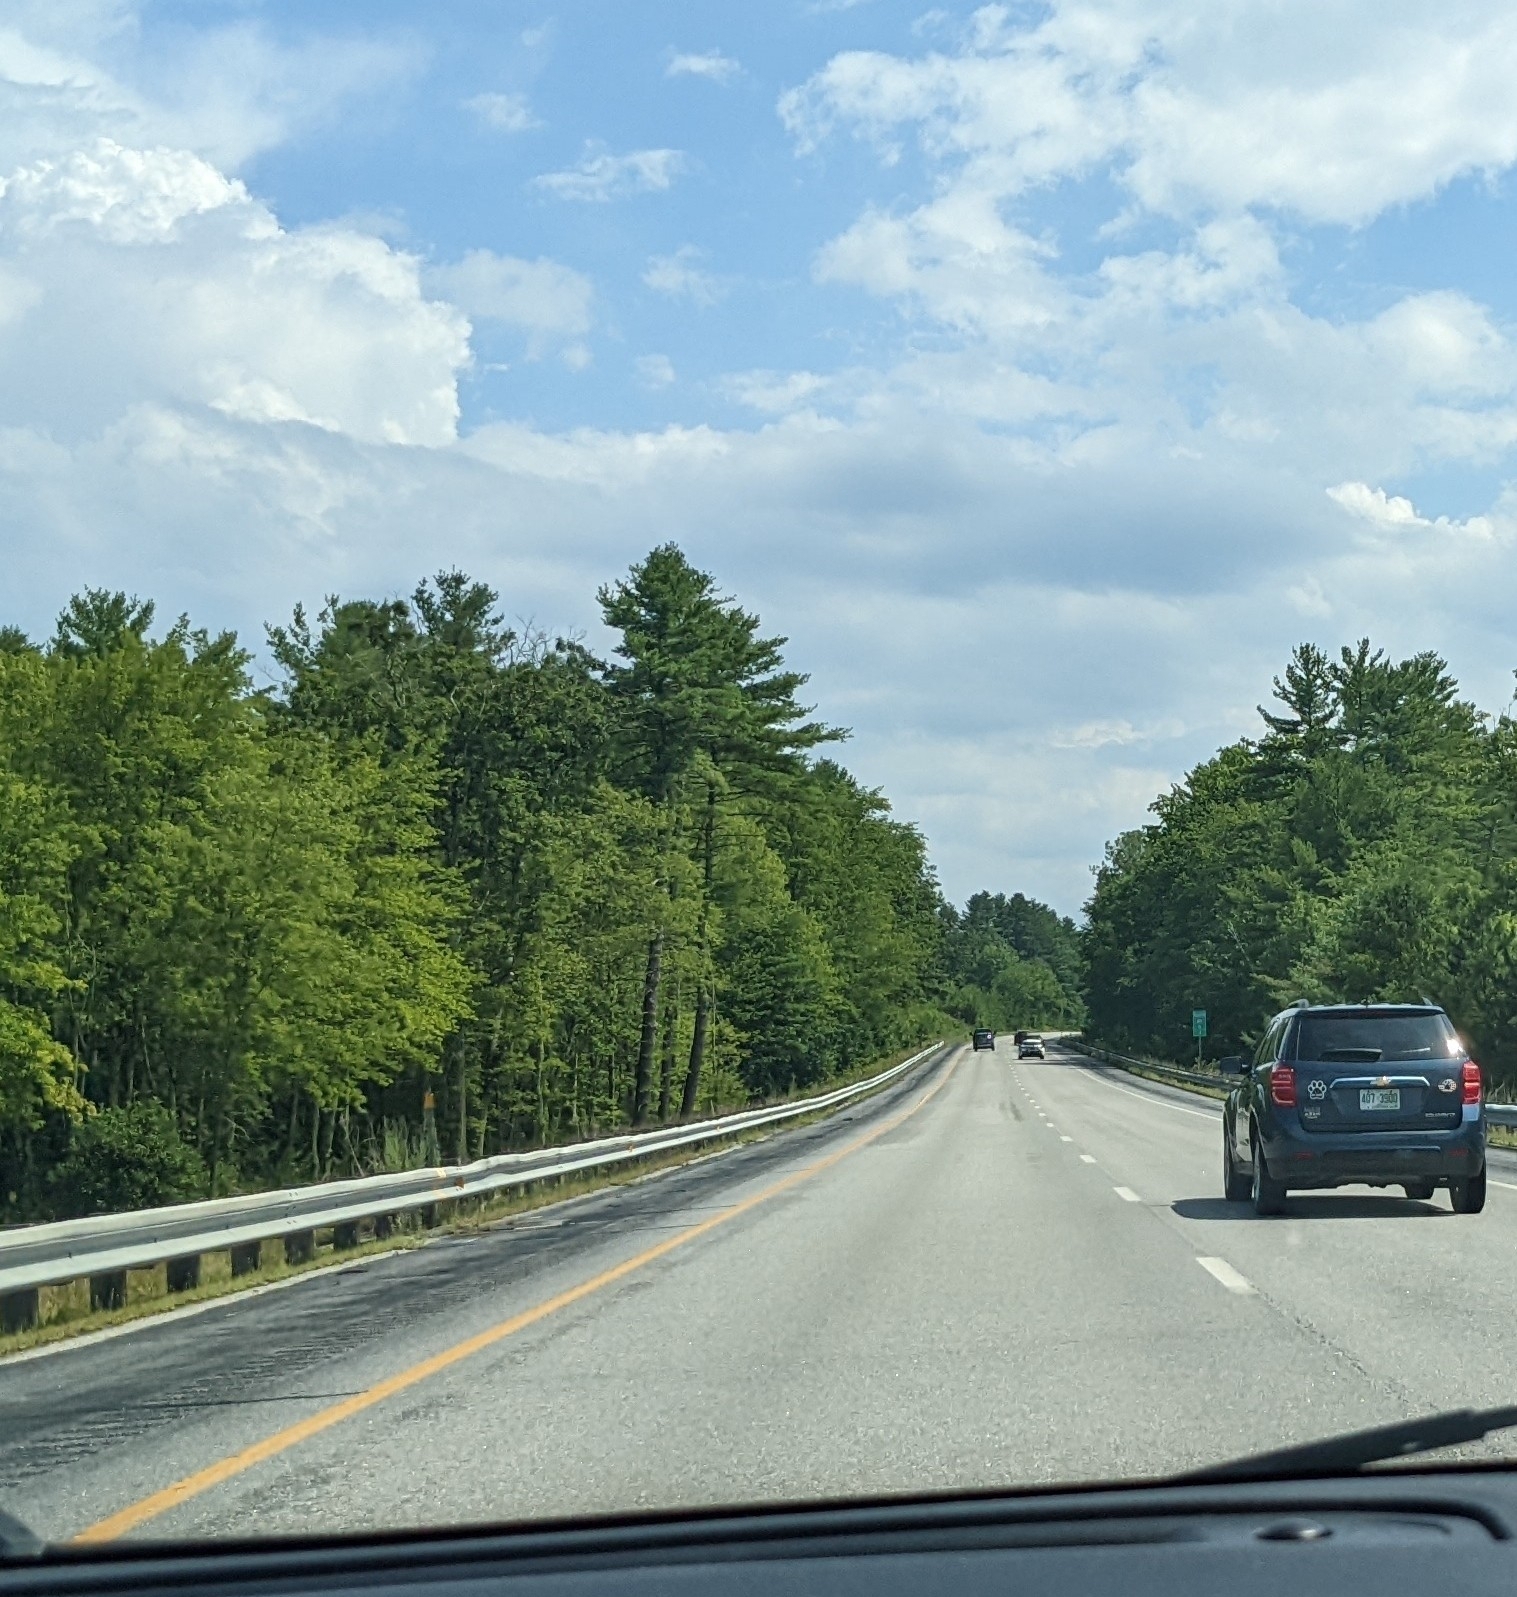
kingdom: Plantae
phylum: Tracheophyta
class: Pinopsida
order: Pinales
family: Pinaceae
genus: Pinus
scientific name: Pinus strobus
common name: Weymouth pine
